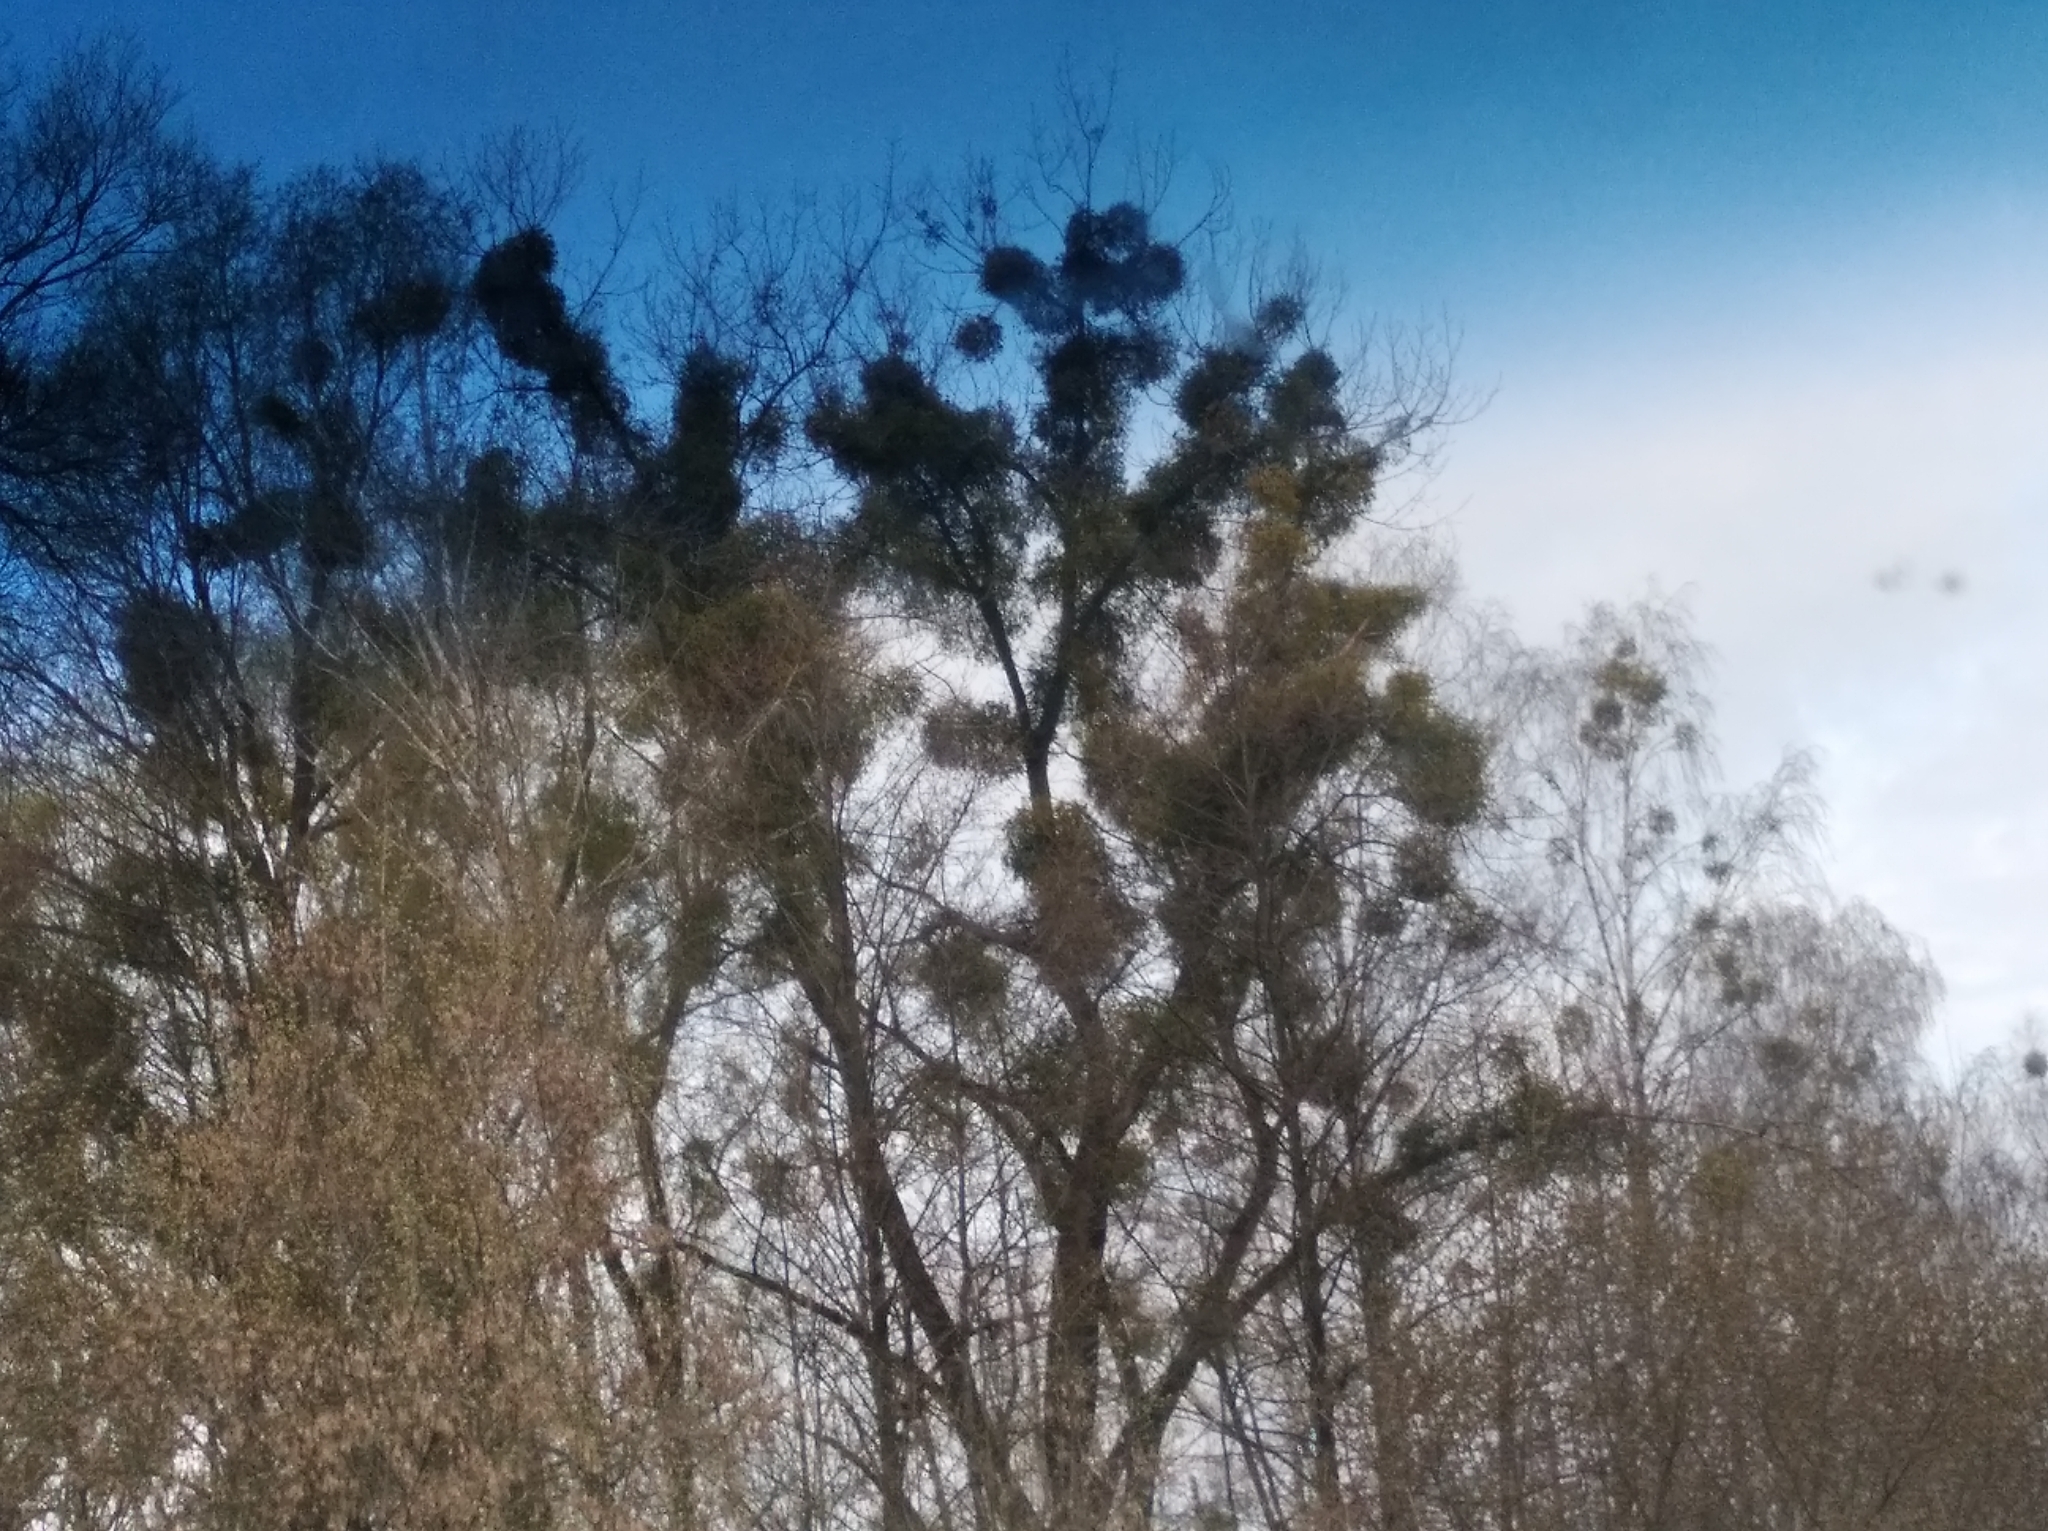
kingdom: Plantae
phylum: Tracheophyta
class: Magnoliopsida
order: Santalales
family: Viscaceae
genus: Viscum
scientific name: Viscum album
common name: Mistletoe
